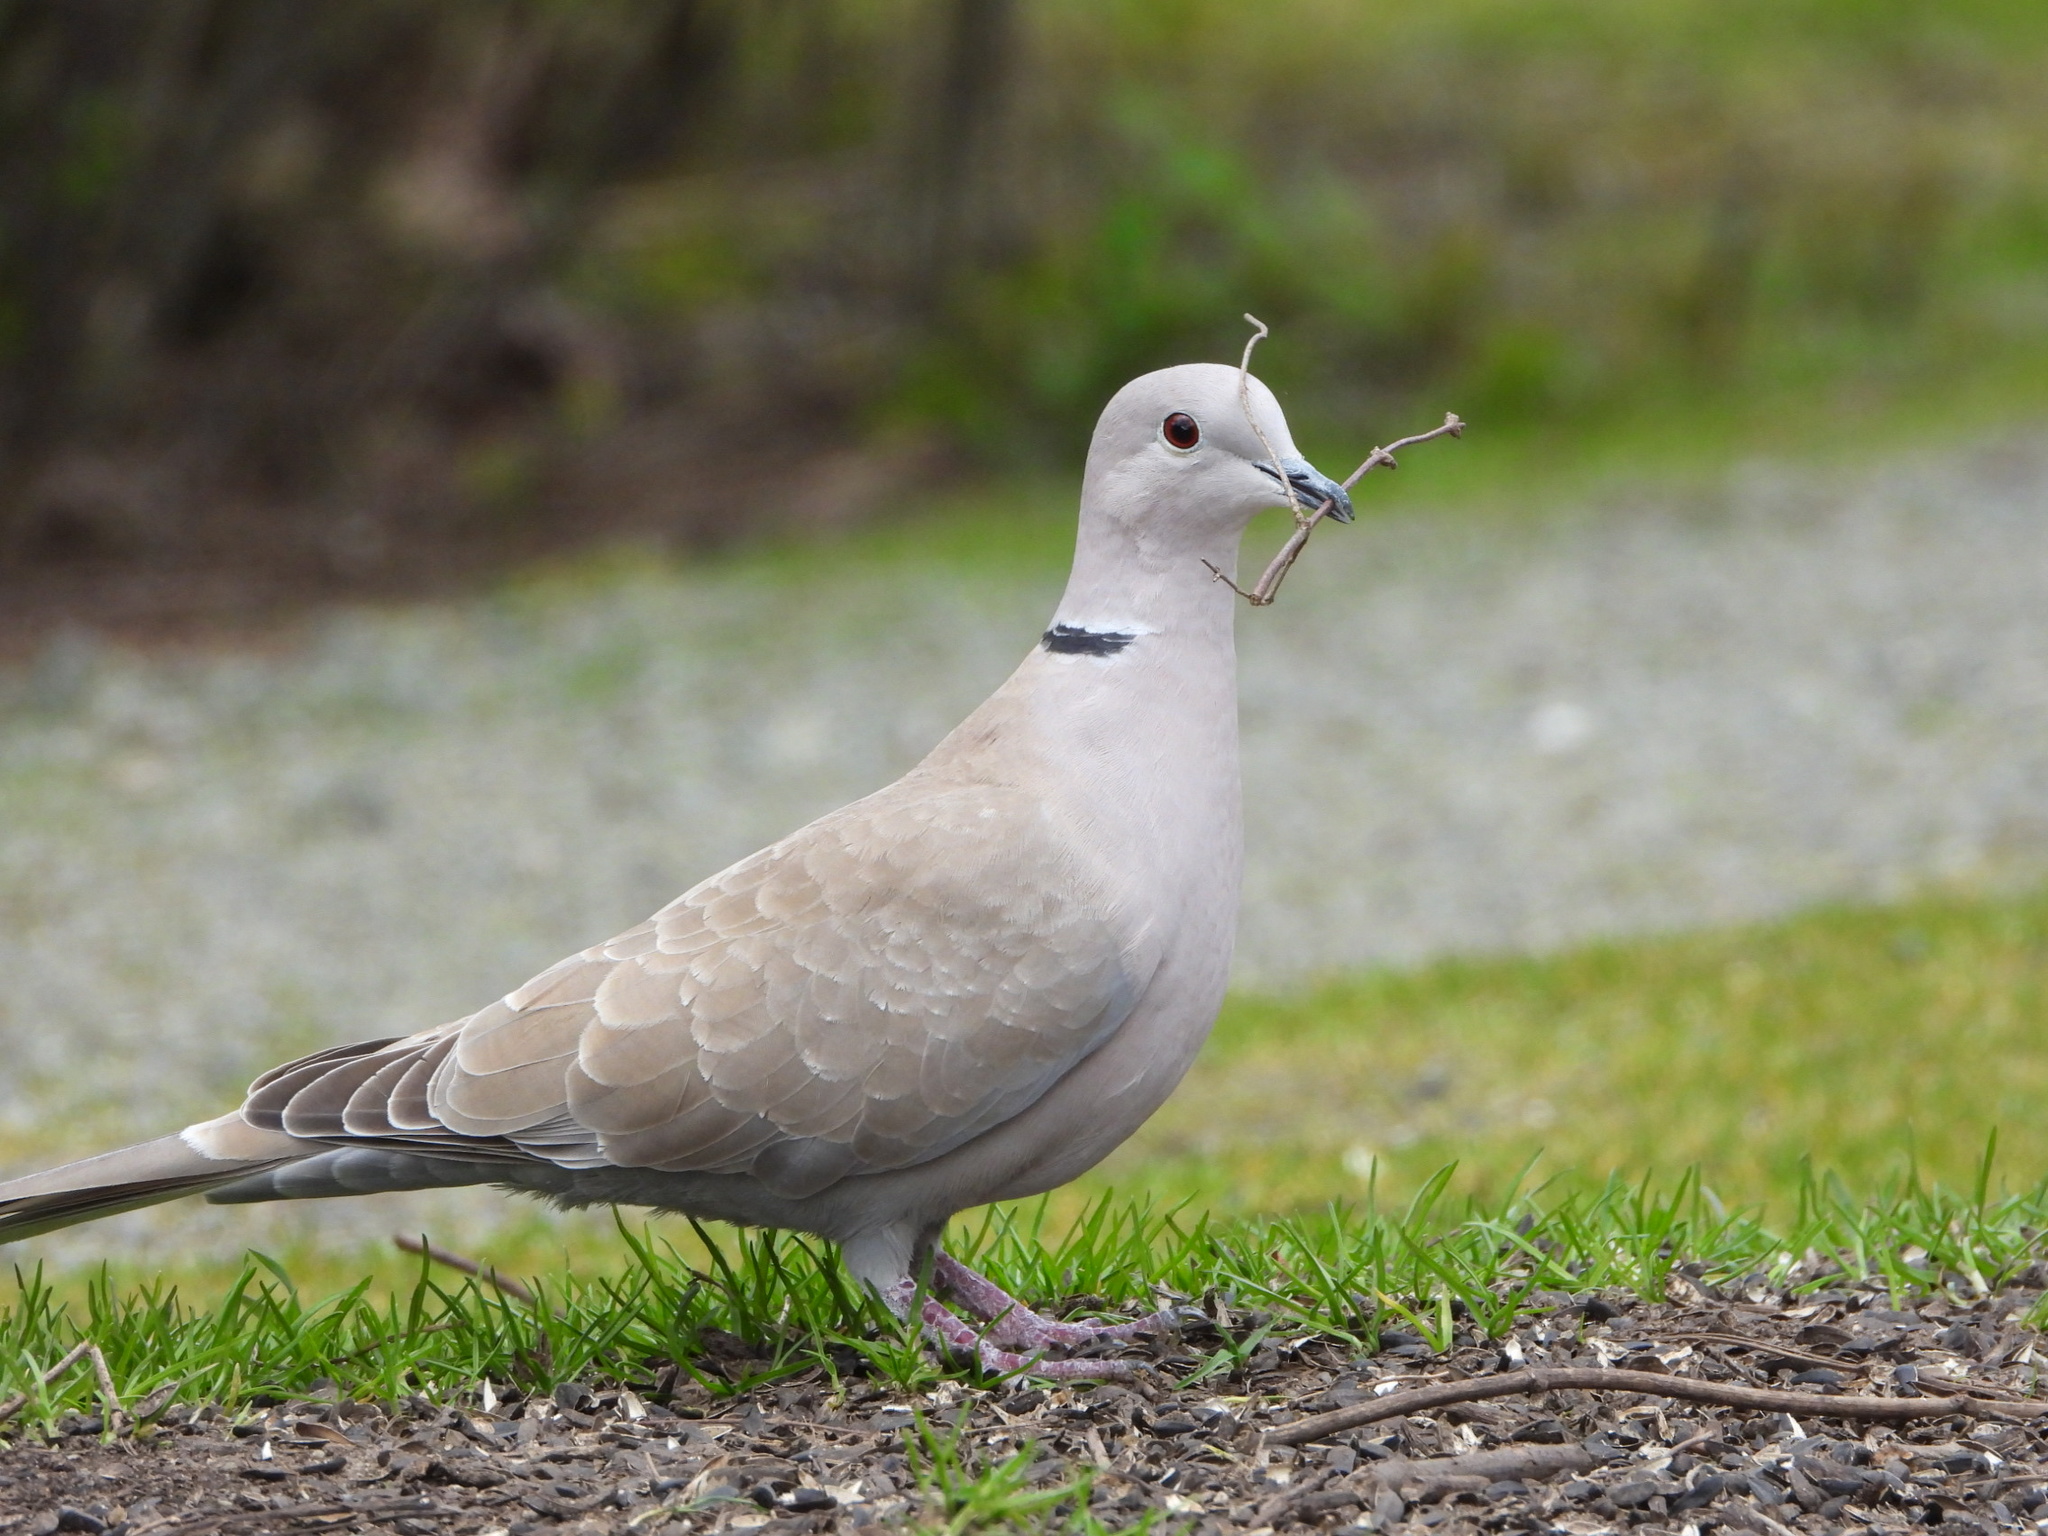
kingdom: Animalia
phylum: Chordata
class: Aves
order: Columbiformes
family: Columbidae
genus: Streptopelia
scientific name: Streptopelia decaocto
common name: Eurasian collared dove
